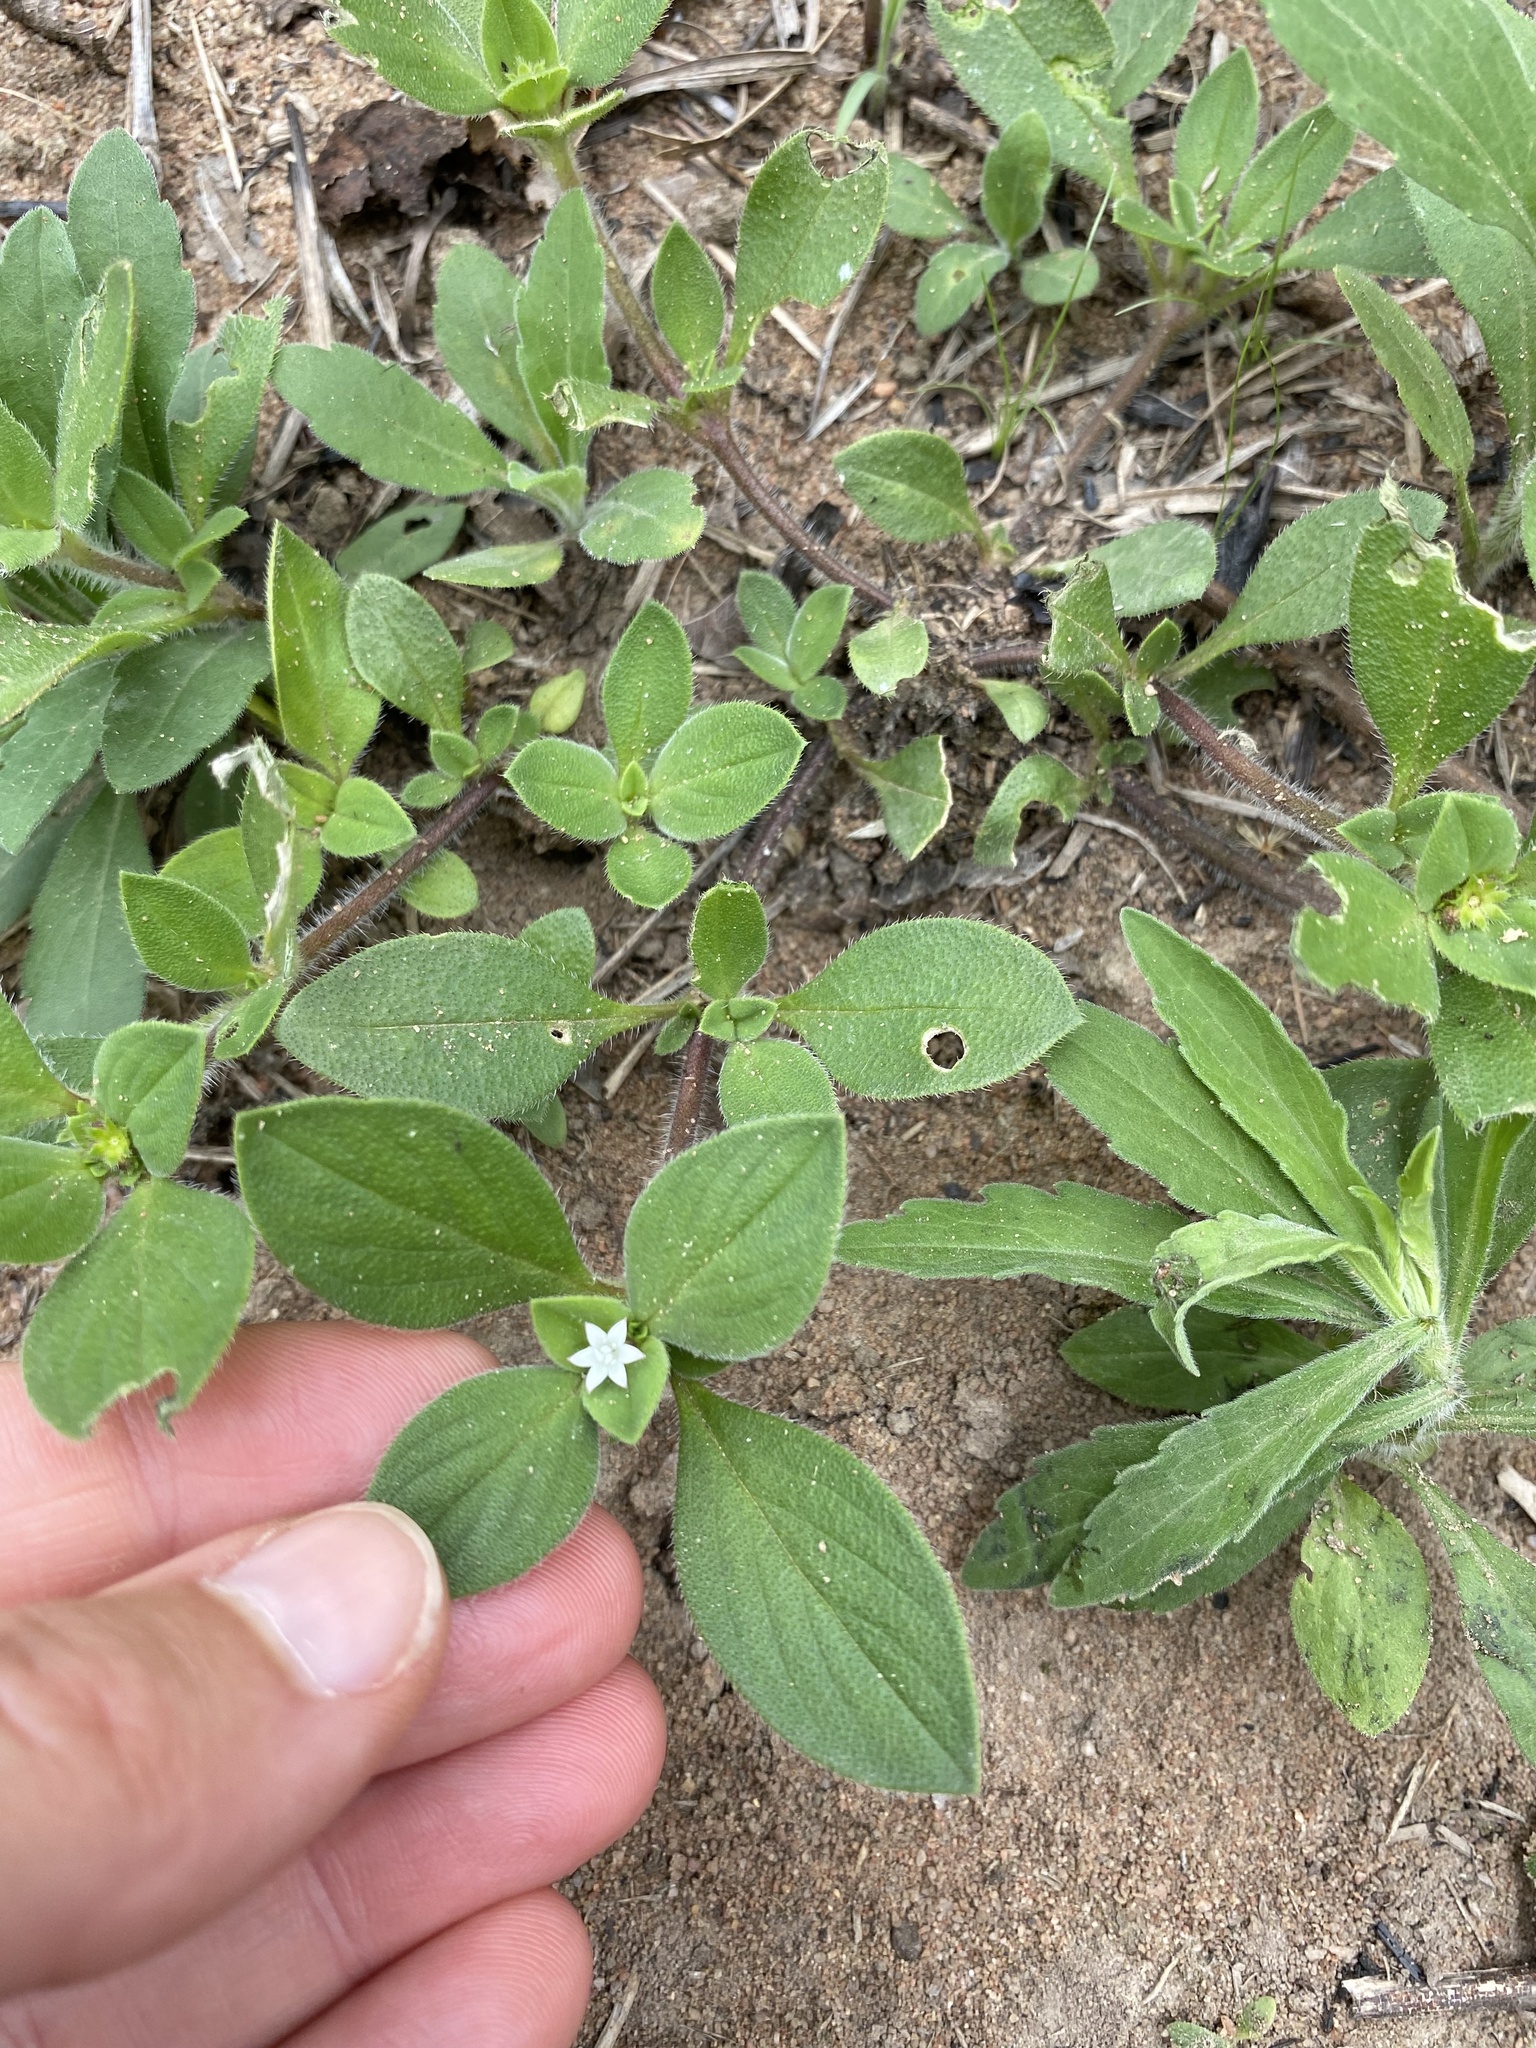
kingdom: Plantae
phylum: Tracheophyta
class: Magnoliopsida
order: Gentianales
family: Rubiaceae
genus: Richardia
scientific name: Richardia brasiliensis
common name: Tropical mexican clover
